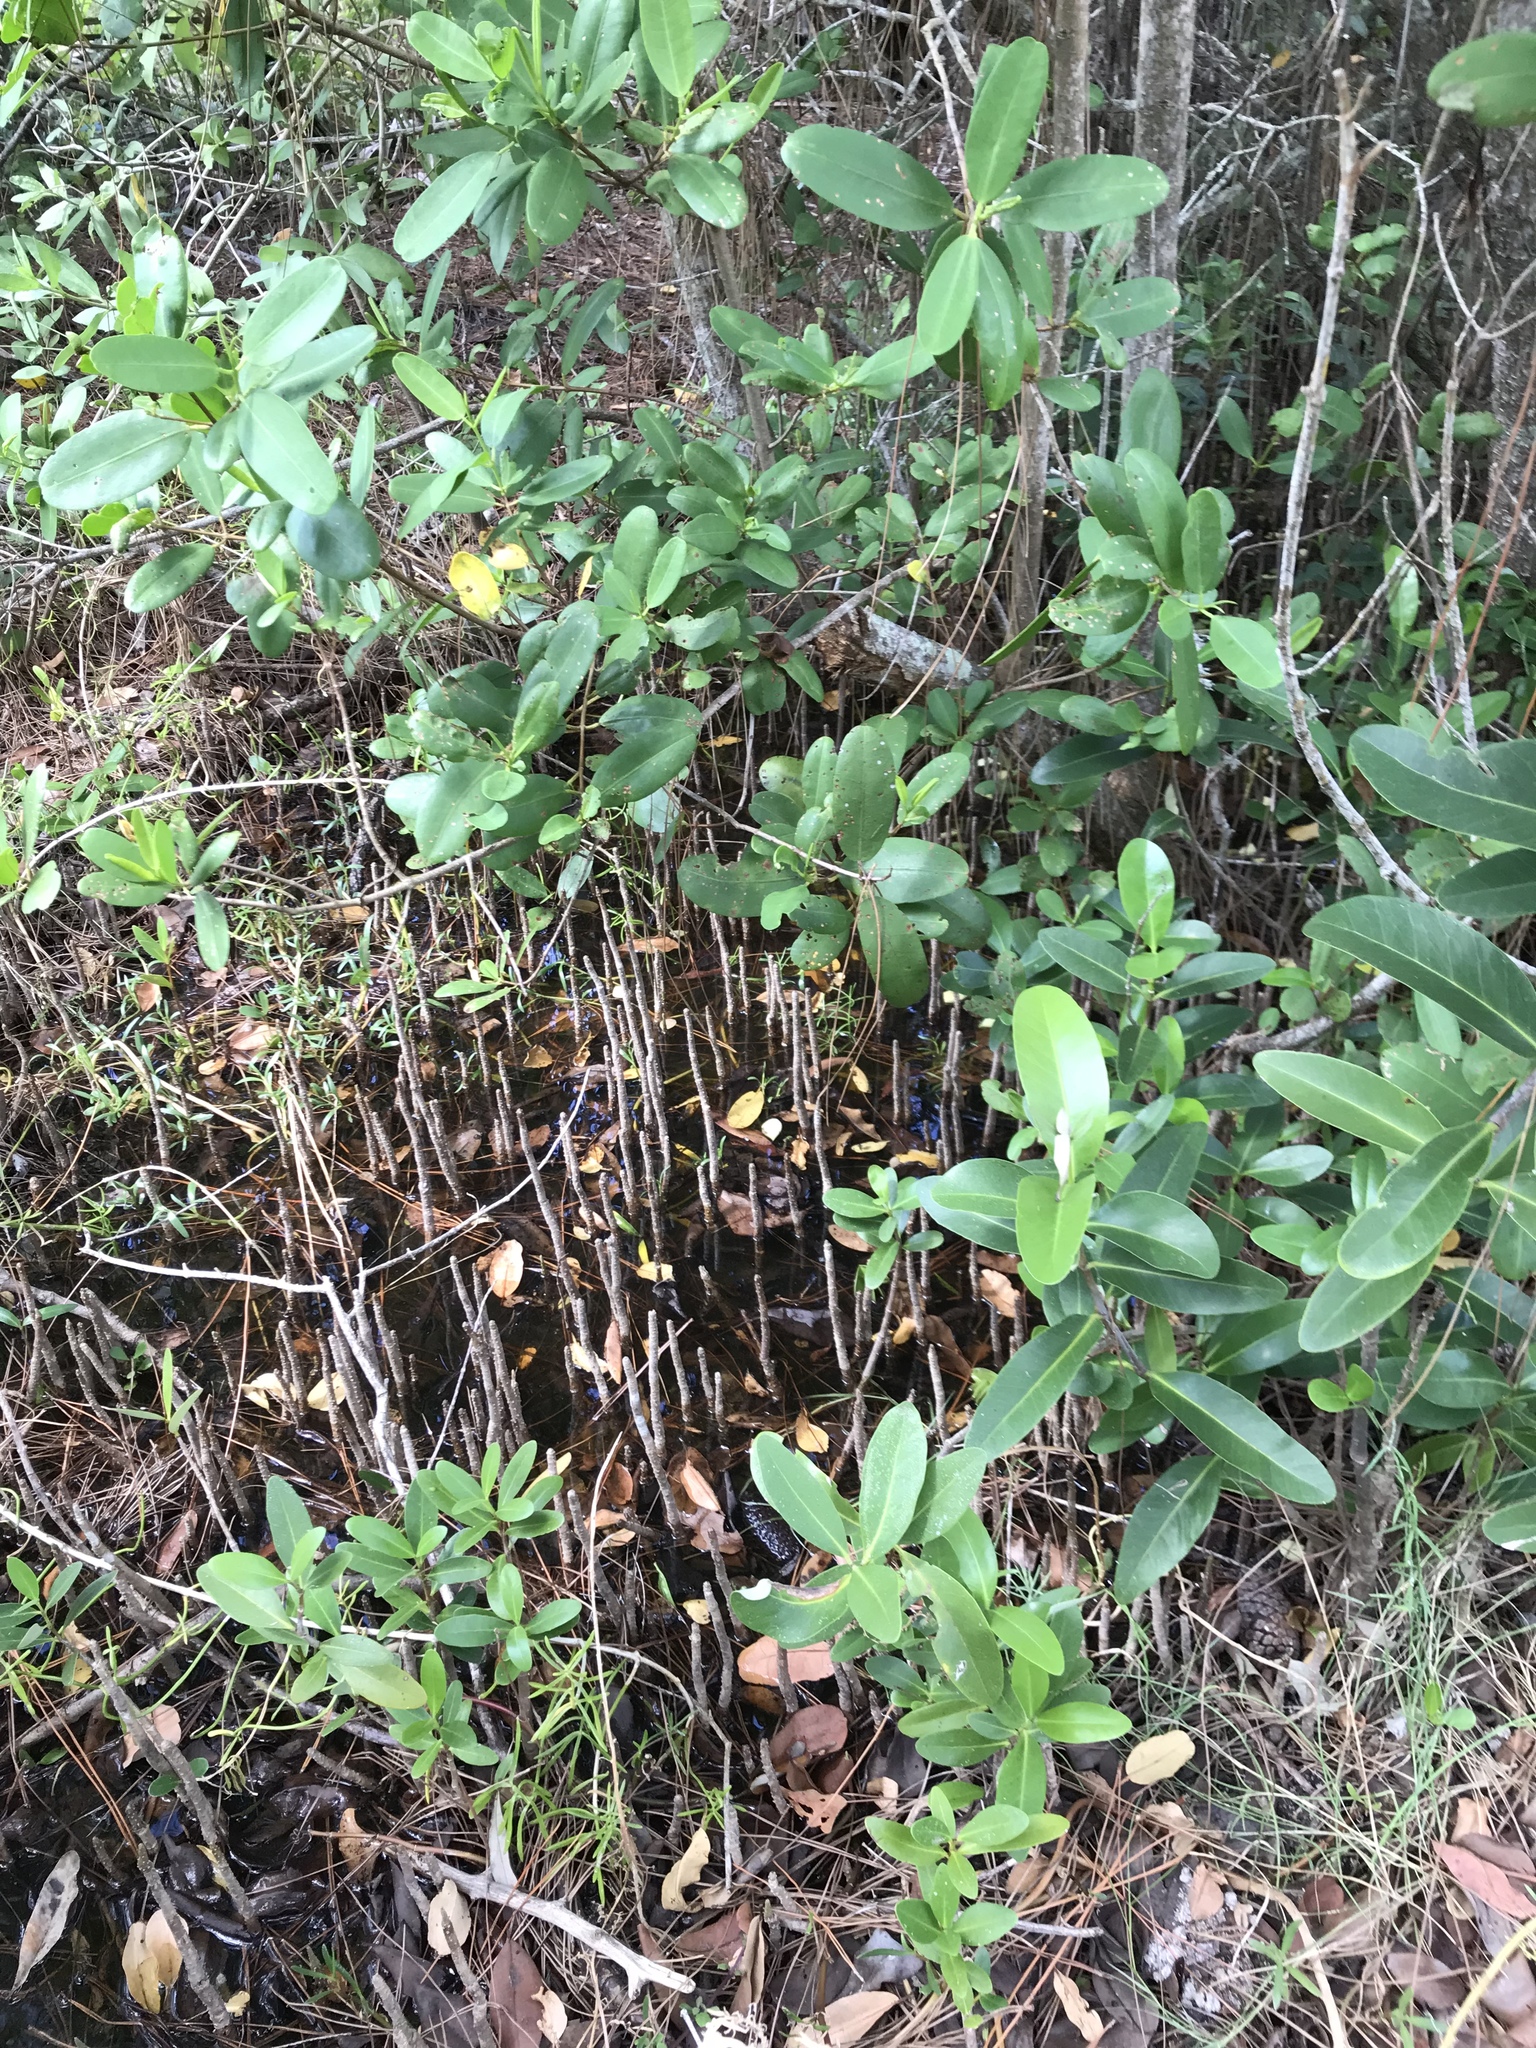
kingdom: Plantae
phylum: Tracheophyta
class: Magnoliopsida
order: Lamiales
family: Acanthaceae
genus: Avicennia
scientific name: Avicennia germinans
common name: Black mangrove
